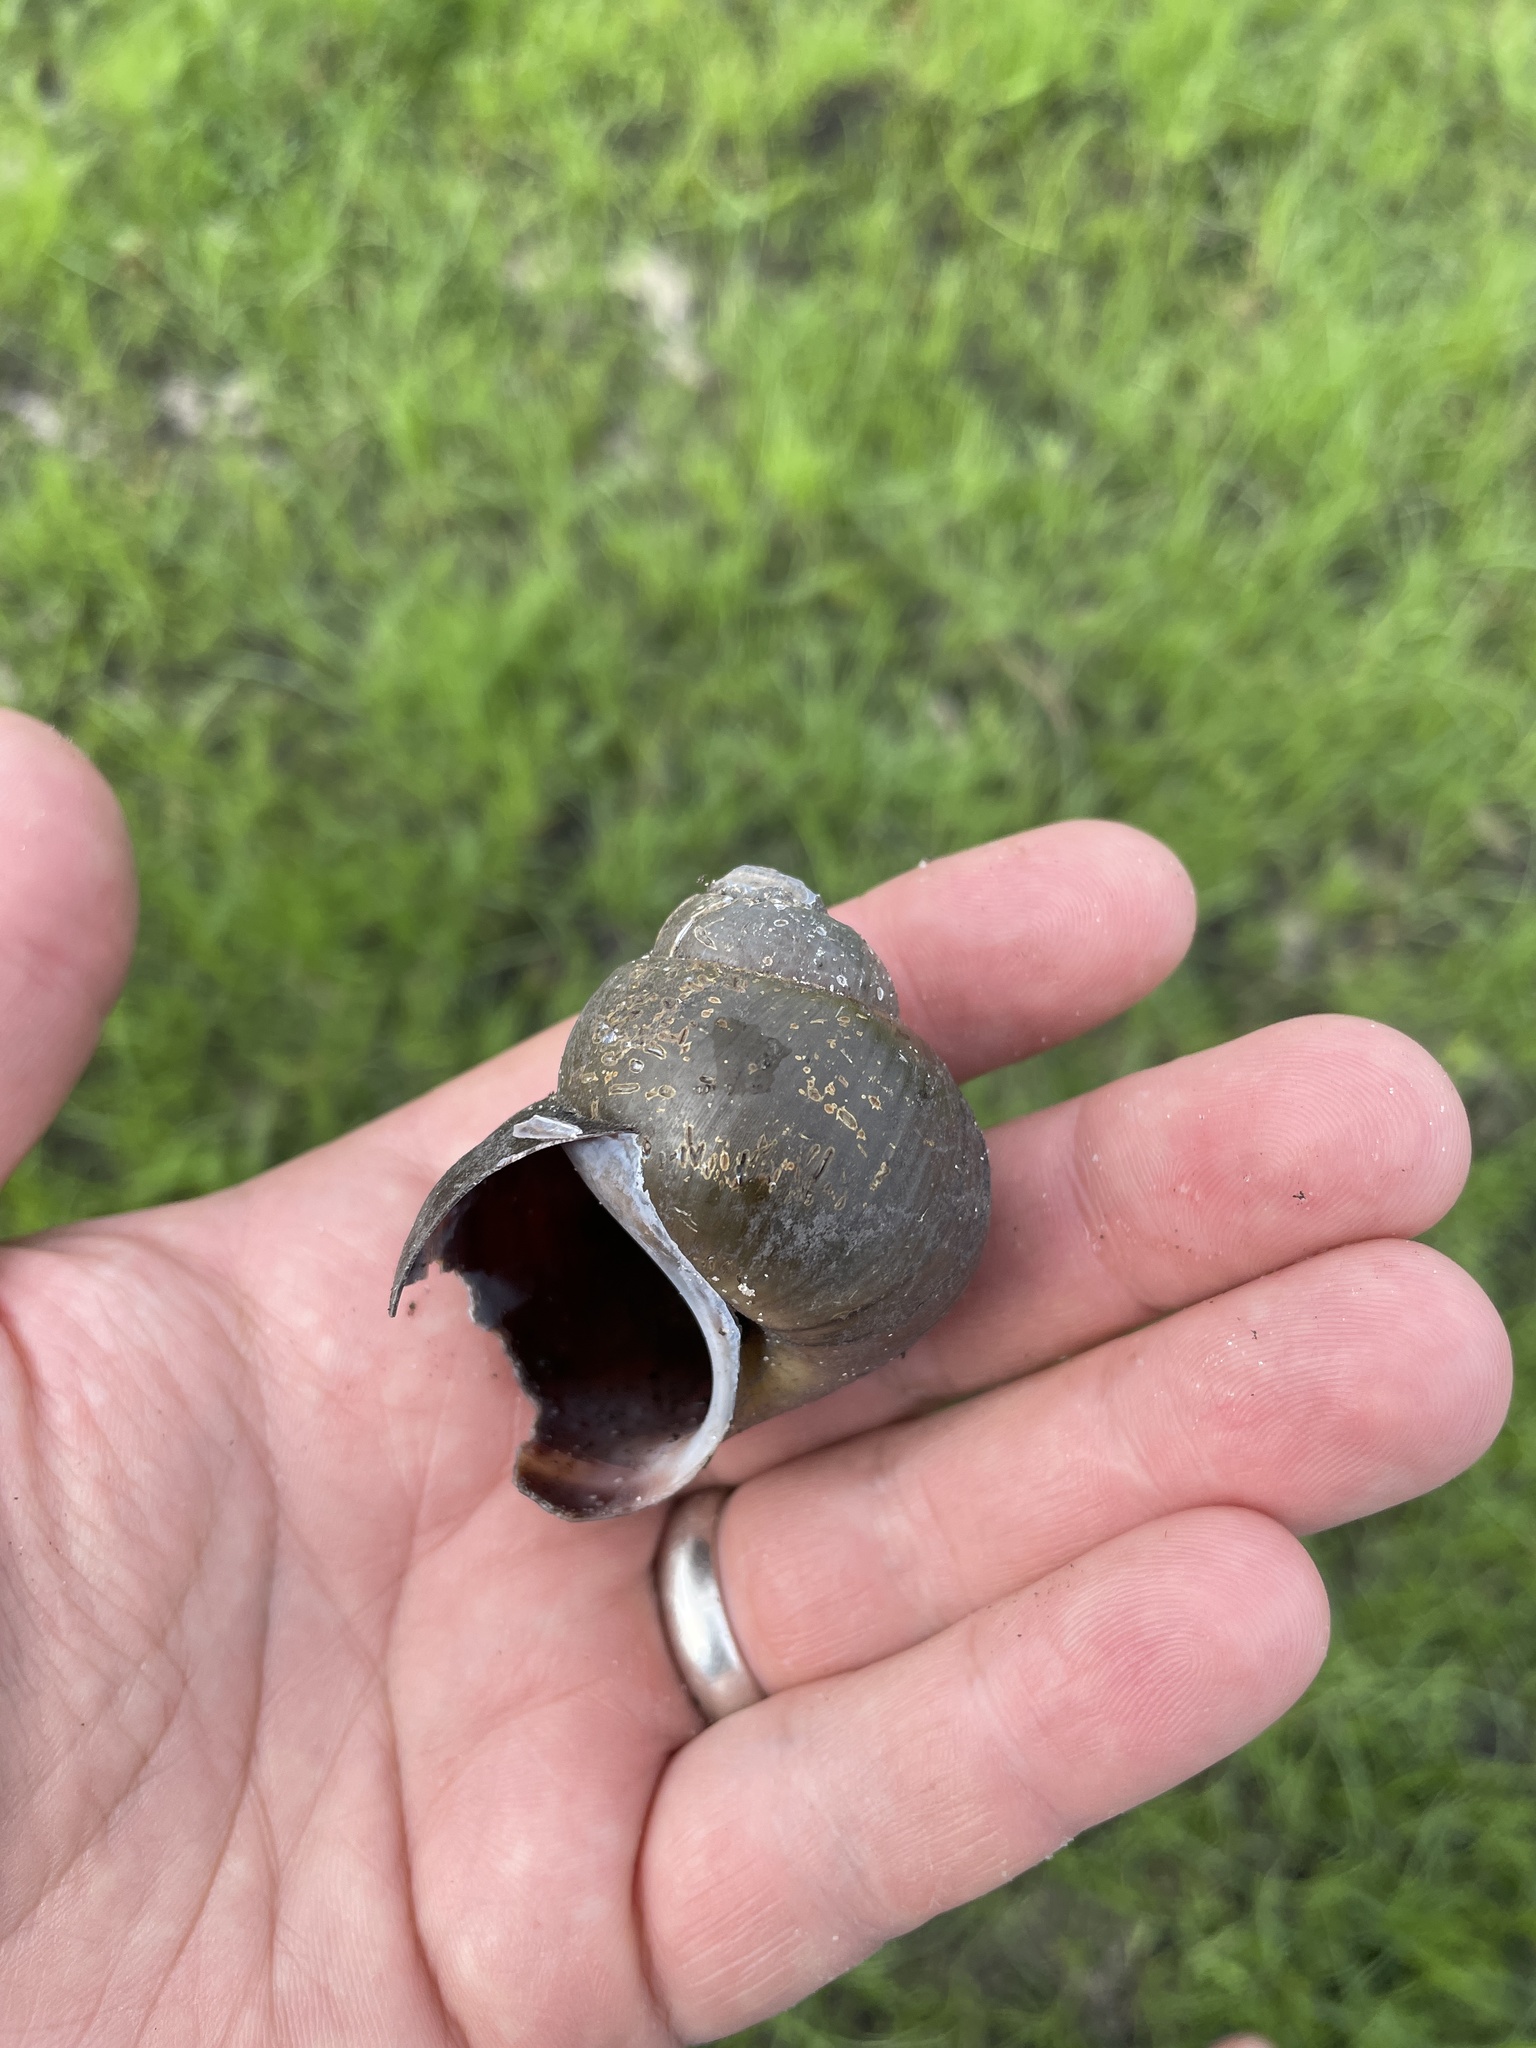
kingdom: Animalia
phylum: Mollusca
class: Gastropoda
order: Architaenioglossa
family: Ampullariidae
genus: Lanistes
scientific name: Lanistes ovum
